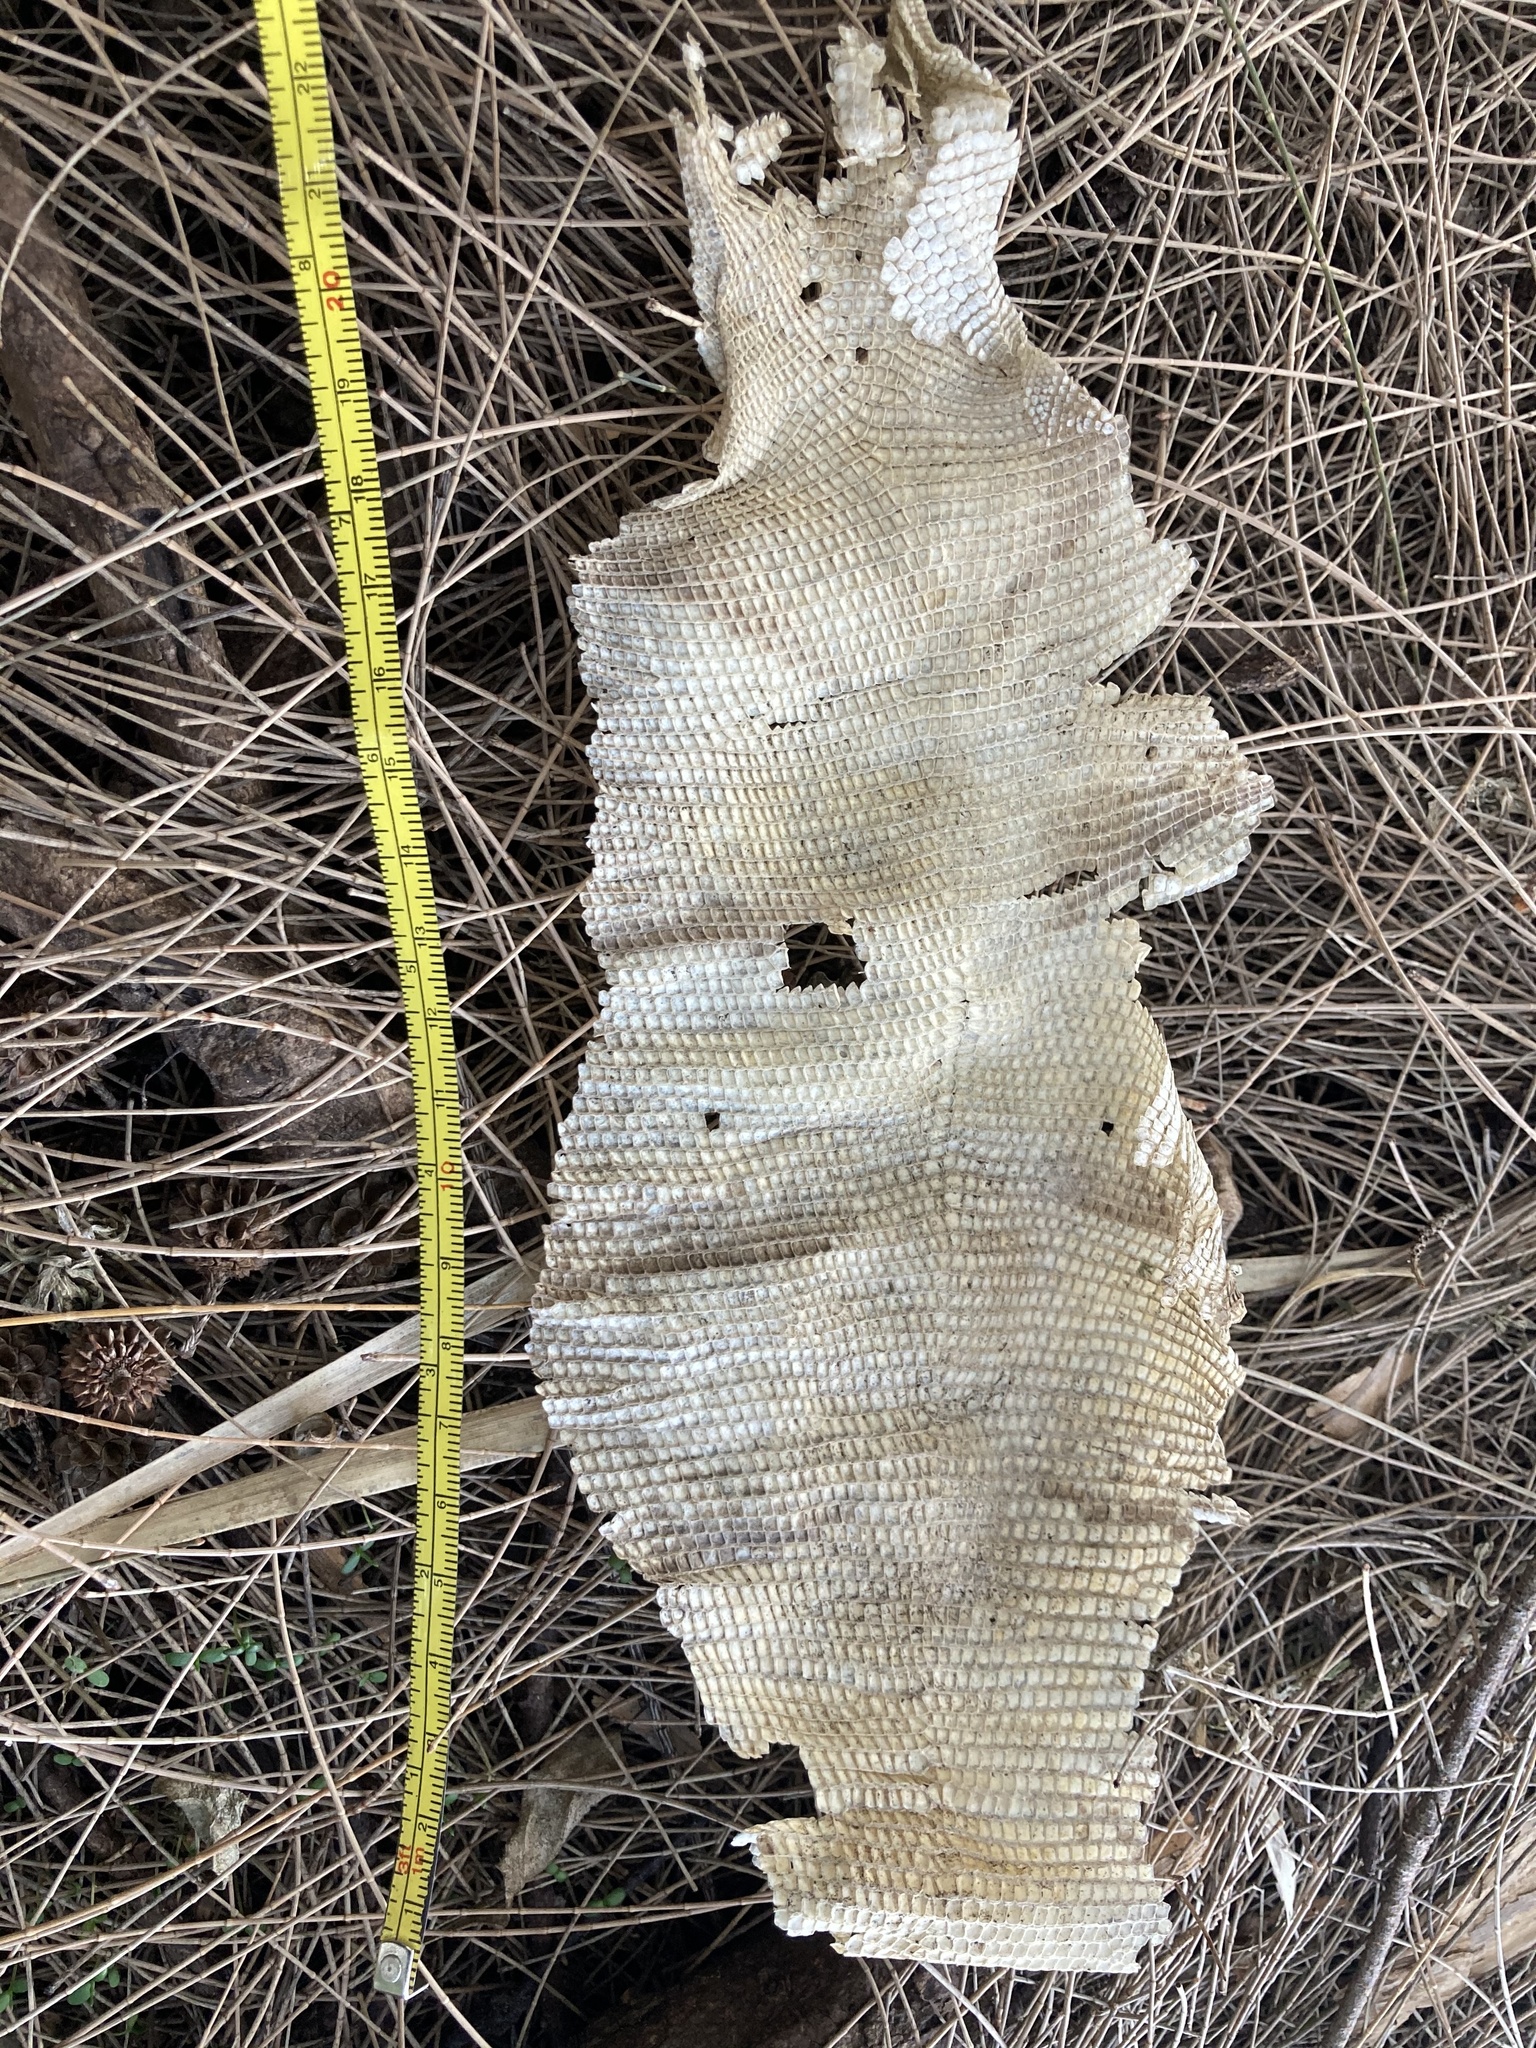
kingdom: Animalia
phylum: Chordata
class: Squamata
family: Iguanidae
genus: Iguana
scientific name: Iguana iguana
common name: Green iguana
